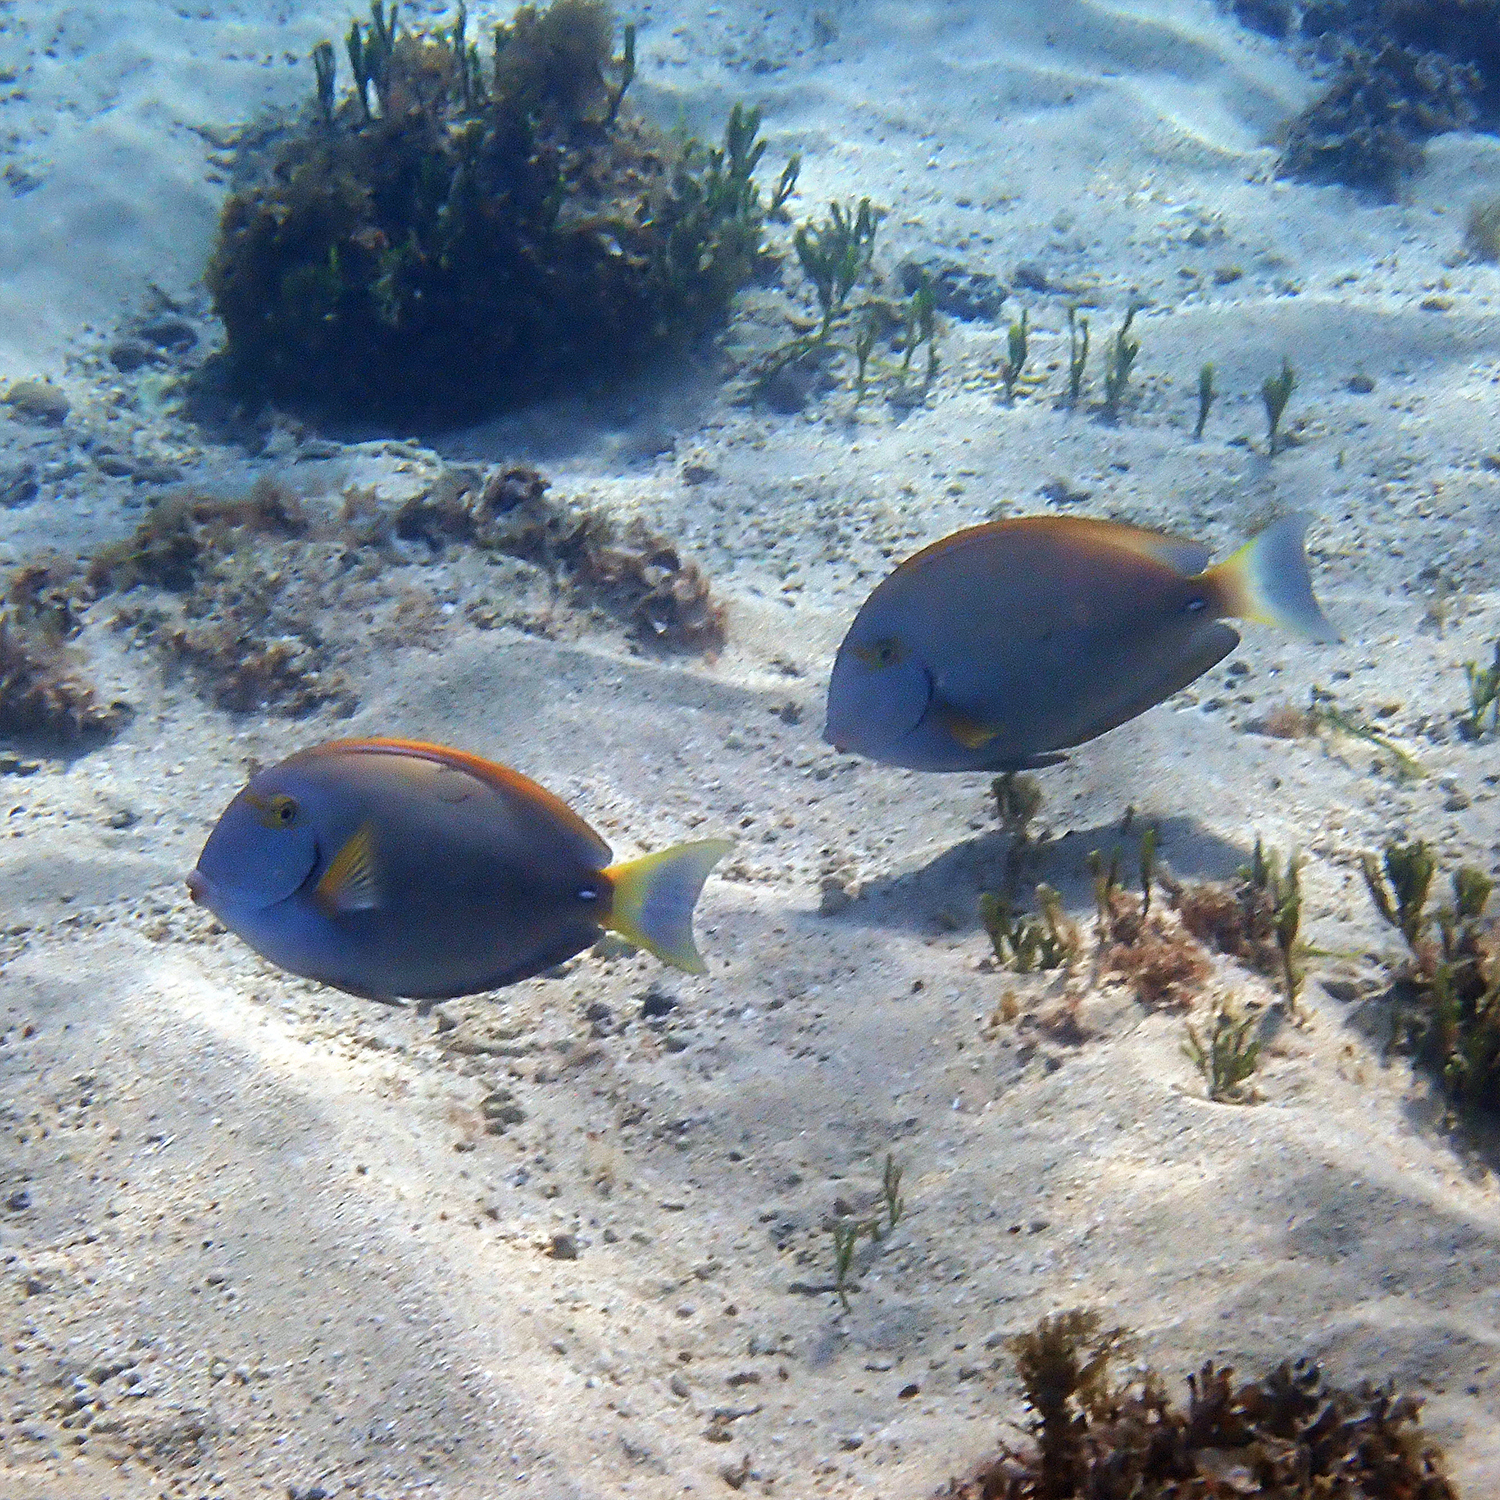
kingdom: Animalia
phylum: Chordata
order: Perciformes
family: Acanthuridae
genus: Acanthurus
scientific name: Acanthurus dussumieri
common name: Dussumier's surgeonfish
